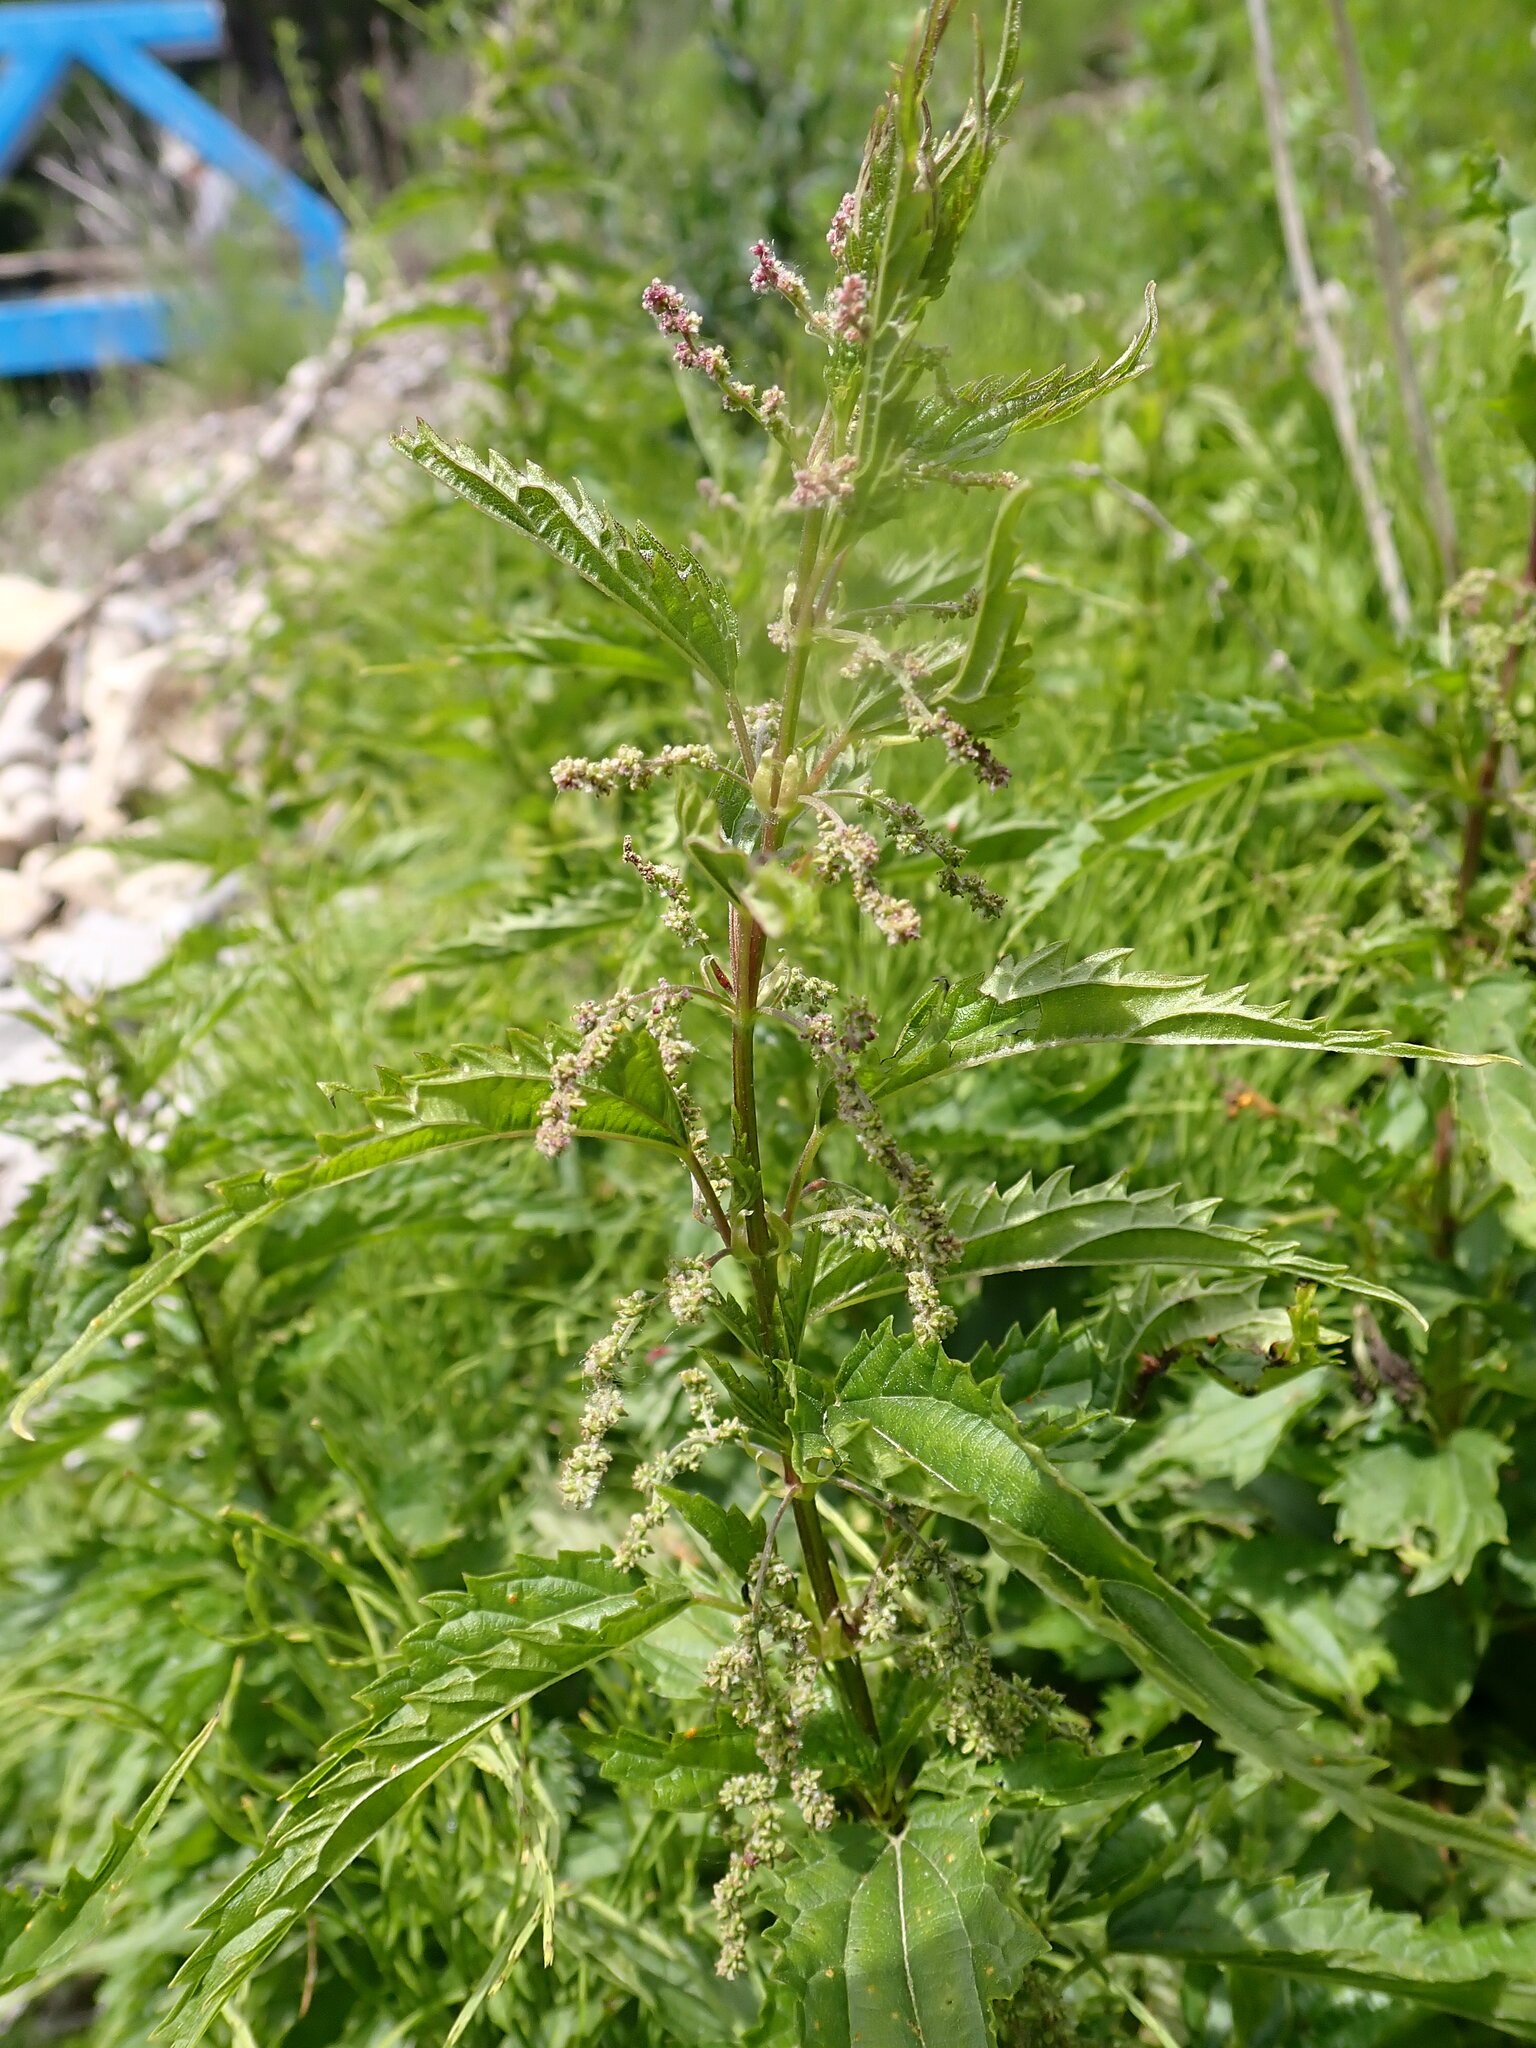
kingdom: Plantae
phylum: Tracheophyta
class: Magnoliopsida
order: Rosales
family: Urticaceae
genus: Urtica
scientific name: Urtica gracilis
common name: Slender stinging nettle
